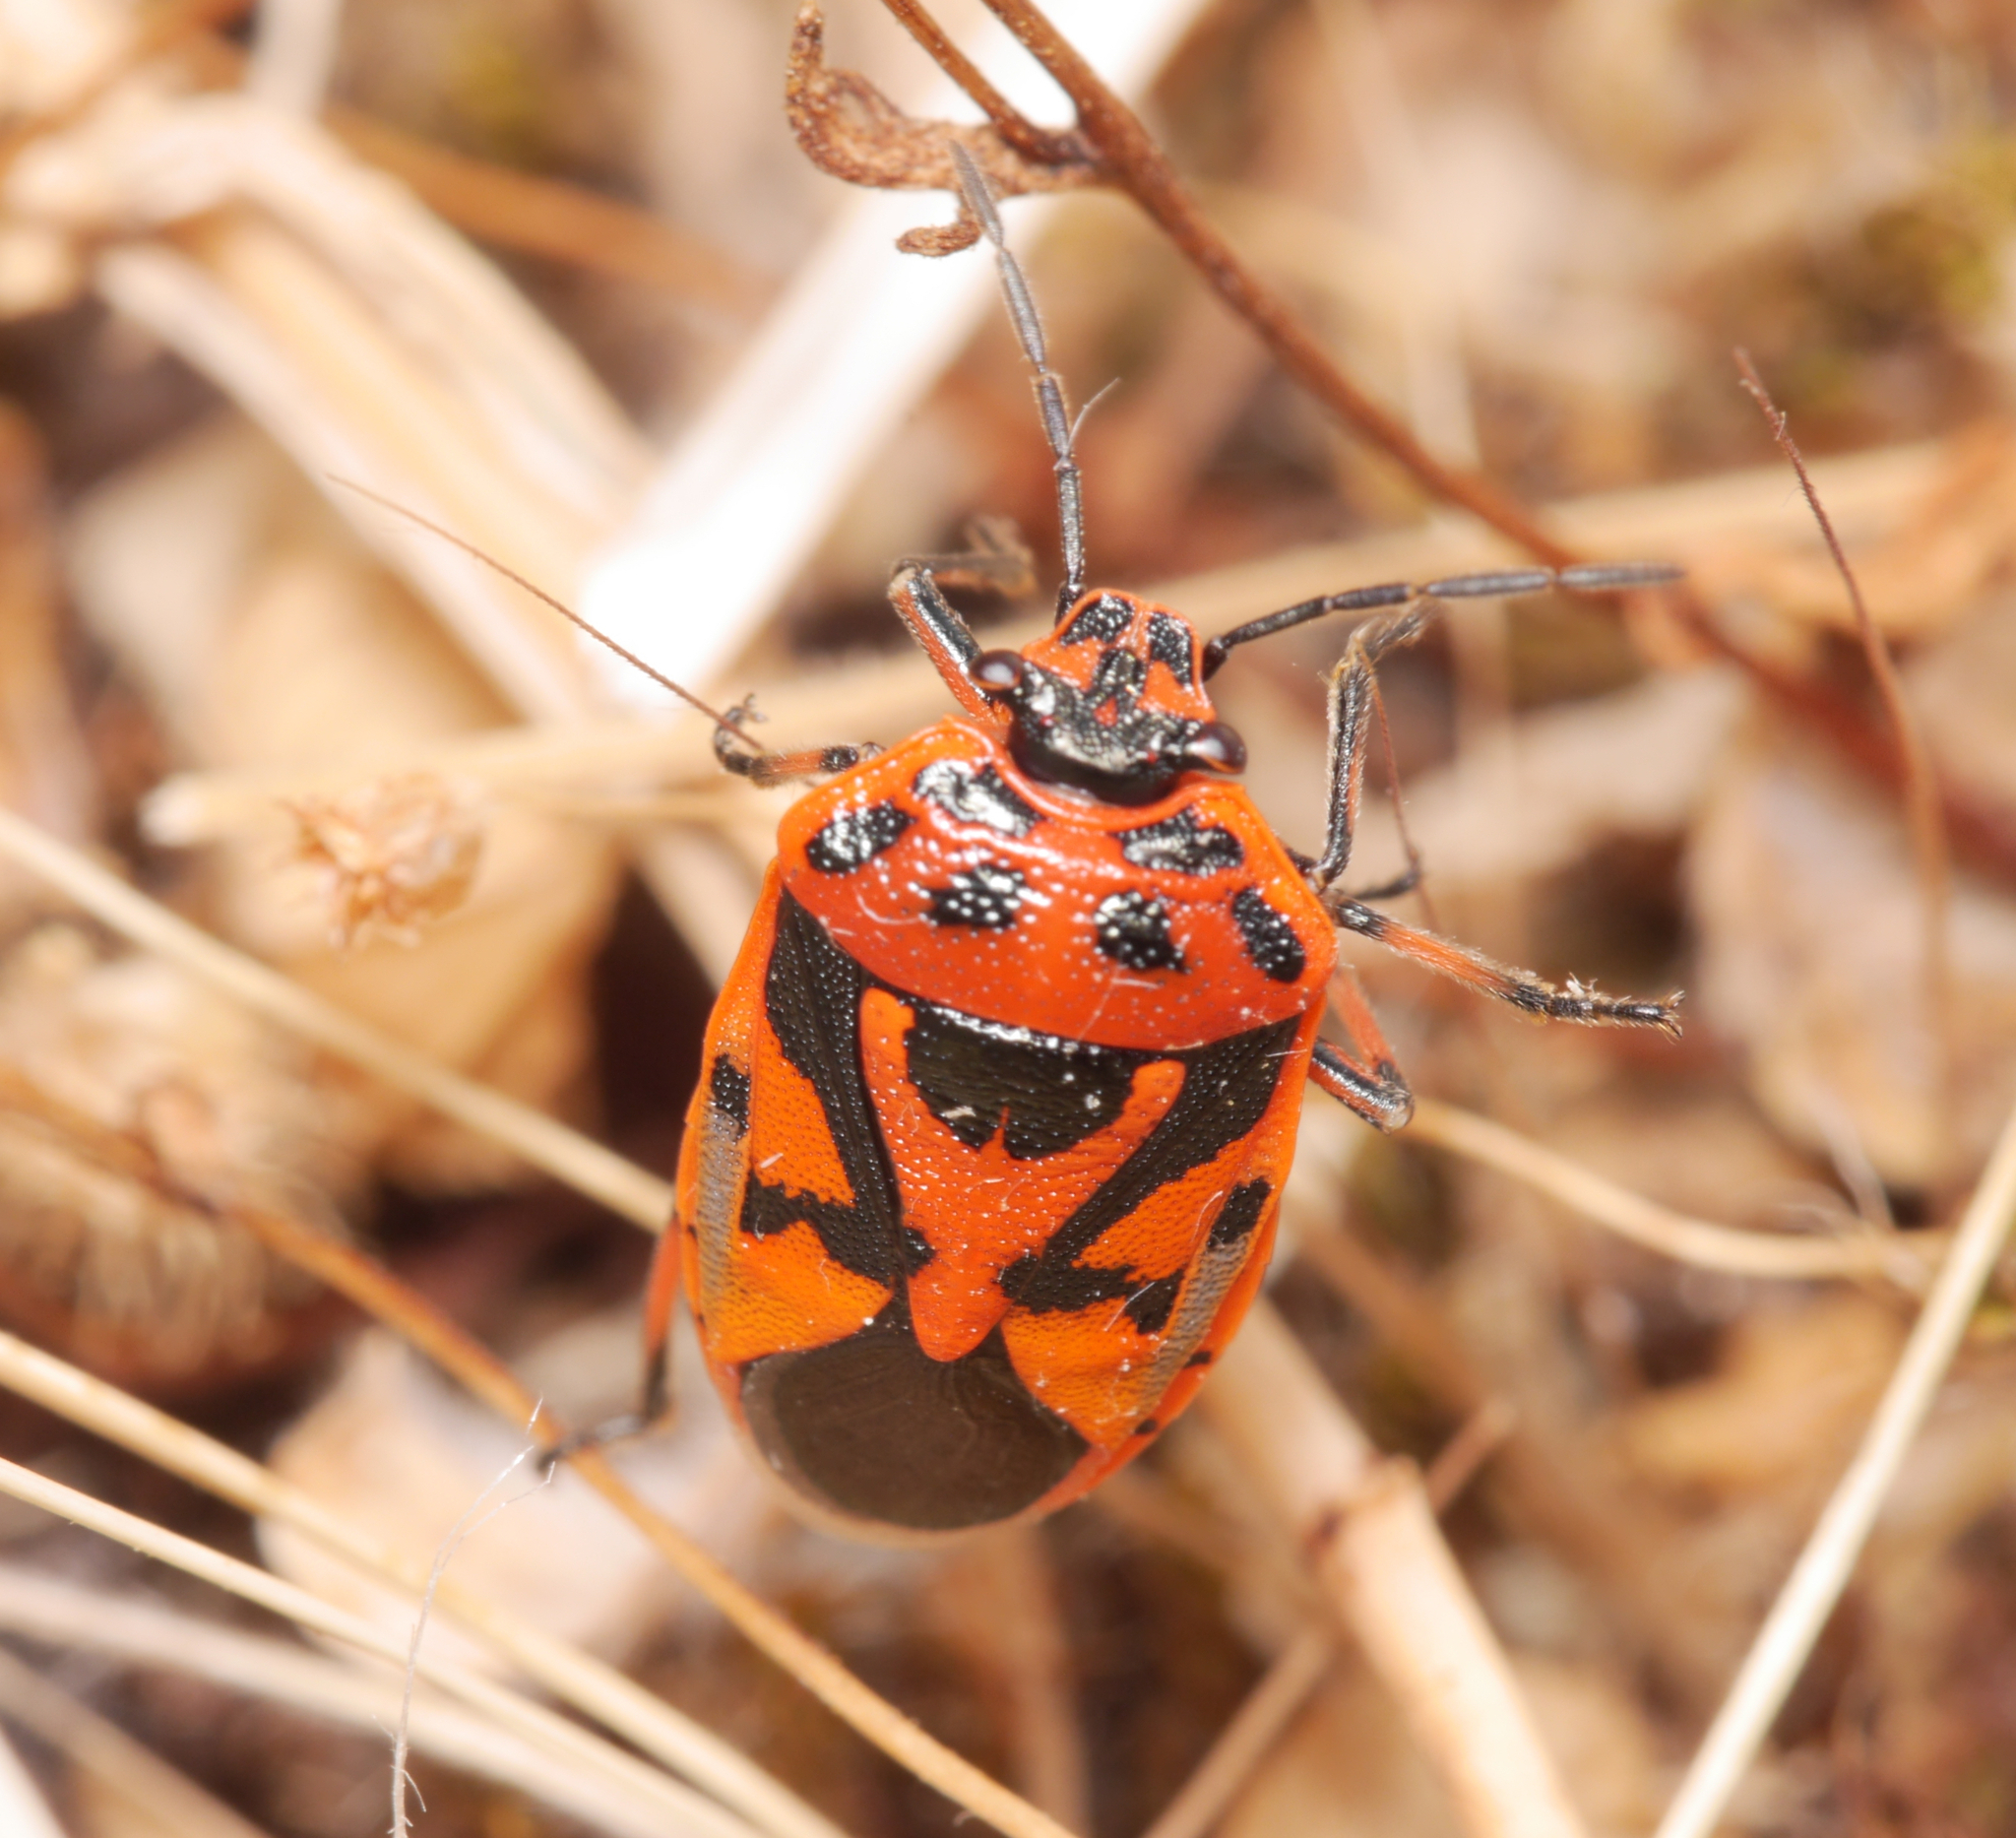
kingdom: Animalia
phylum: Arthropoda
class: Insecta
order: Hemiptera
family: Pentatomidae
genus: Eurydema
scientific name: Eurydema ornata
